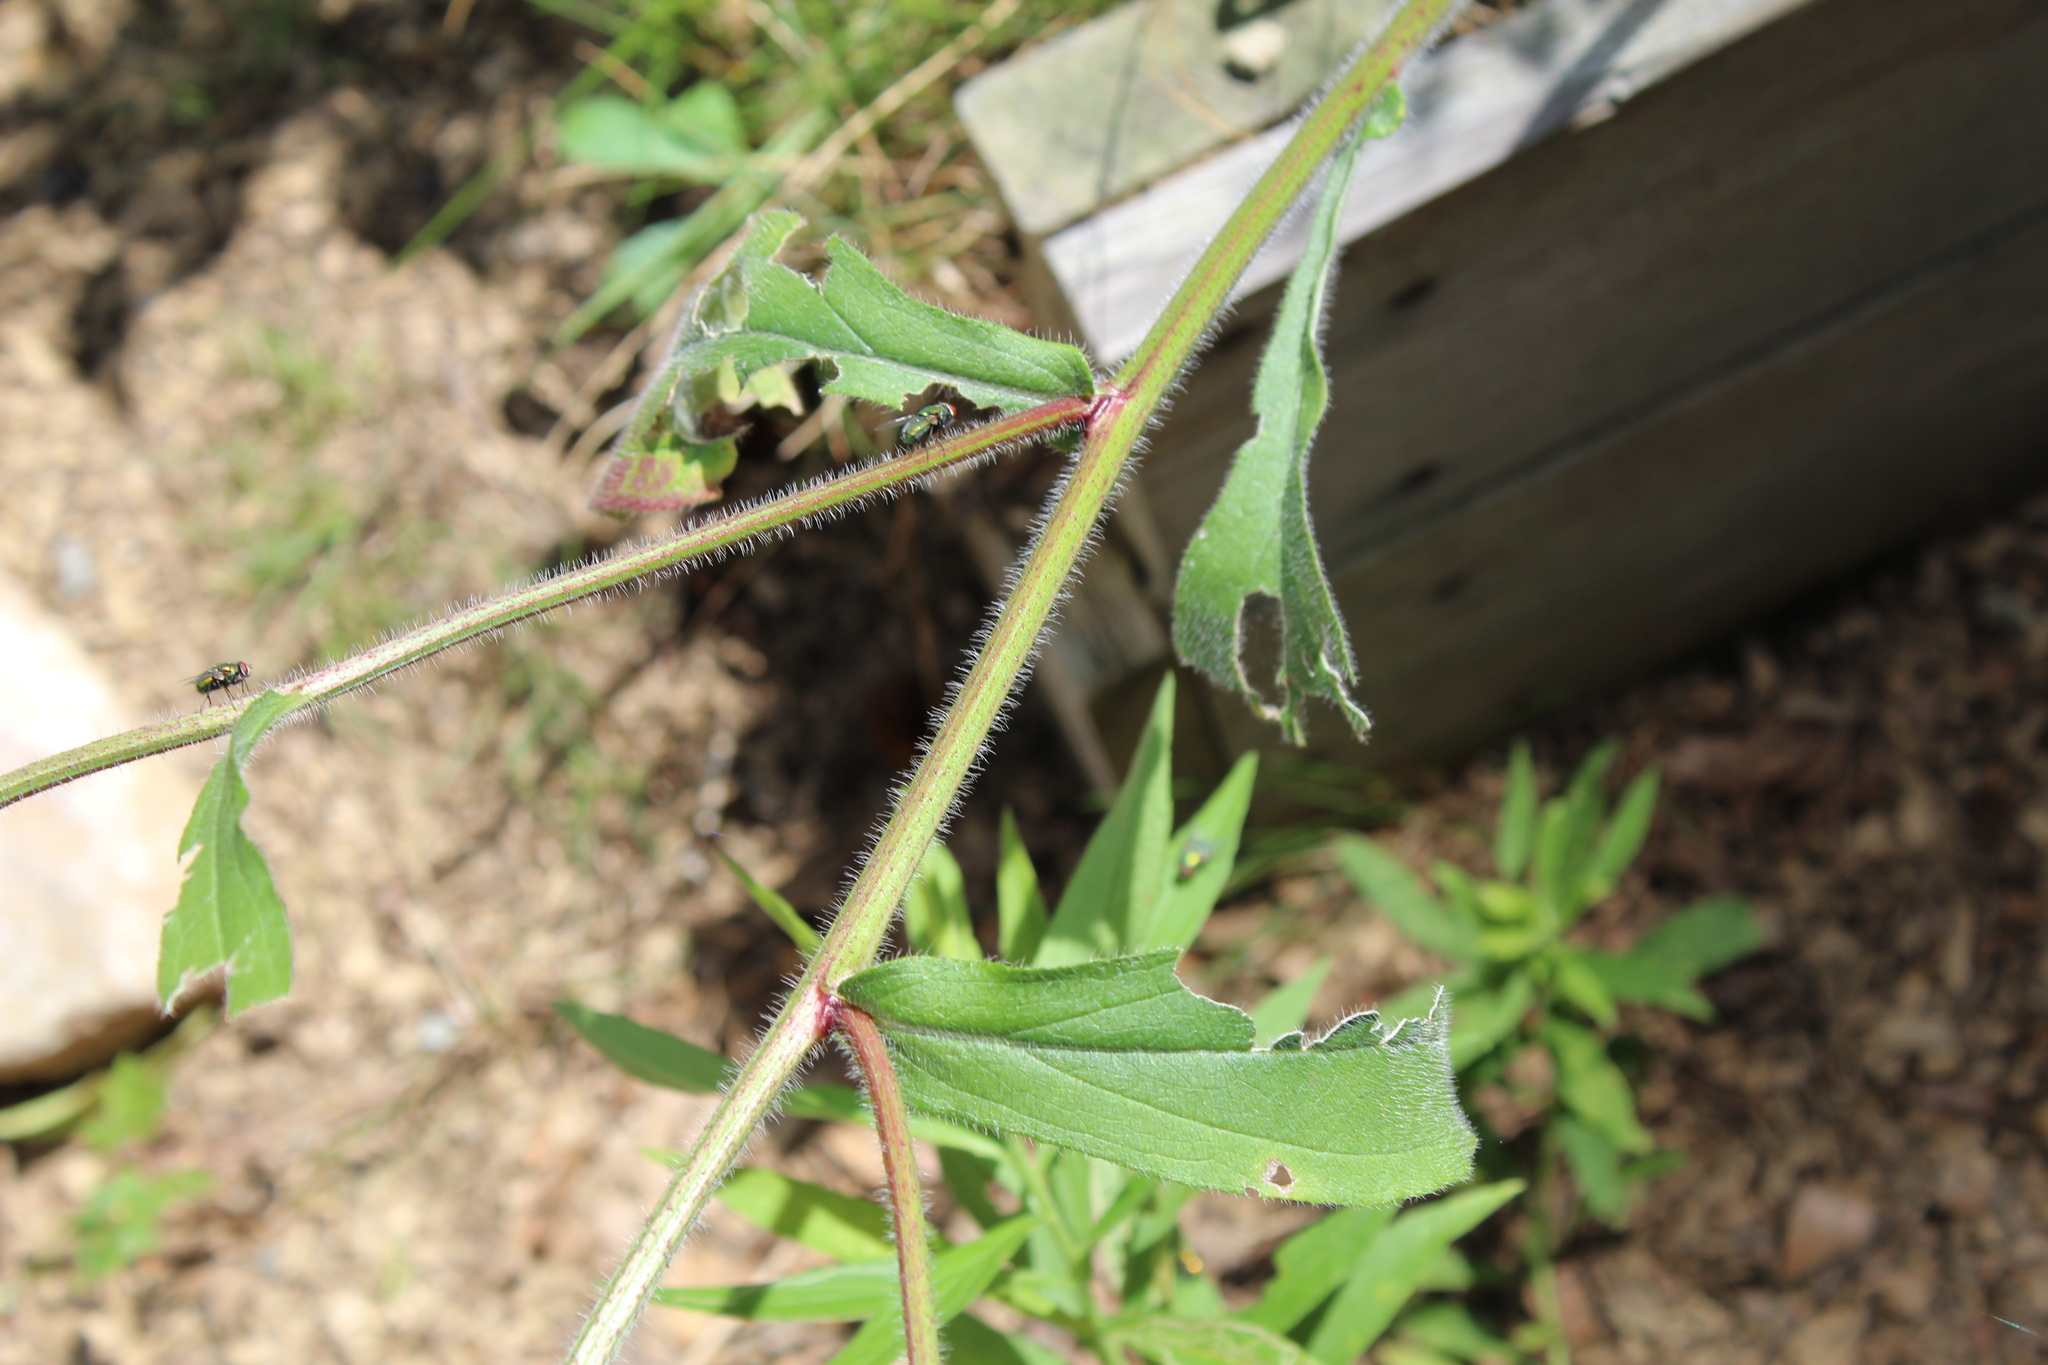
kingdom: Plantae
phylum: Tracheophyta
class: Magnoliopsida
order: Asterales
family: Asteraceae
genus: Rudbeckia
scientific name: Rudbeckia hirta
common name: Black-eyed-susan
